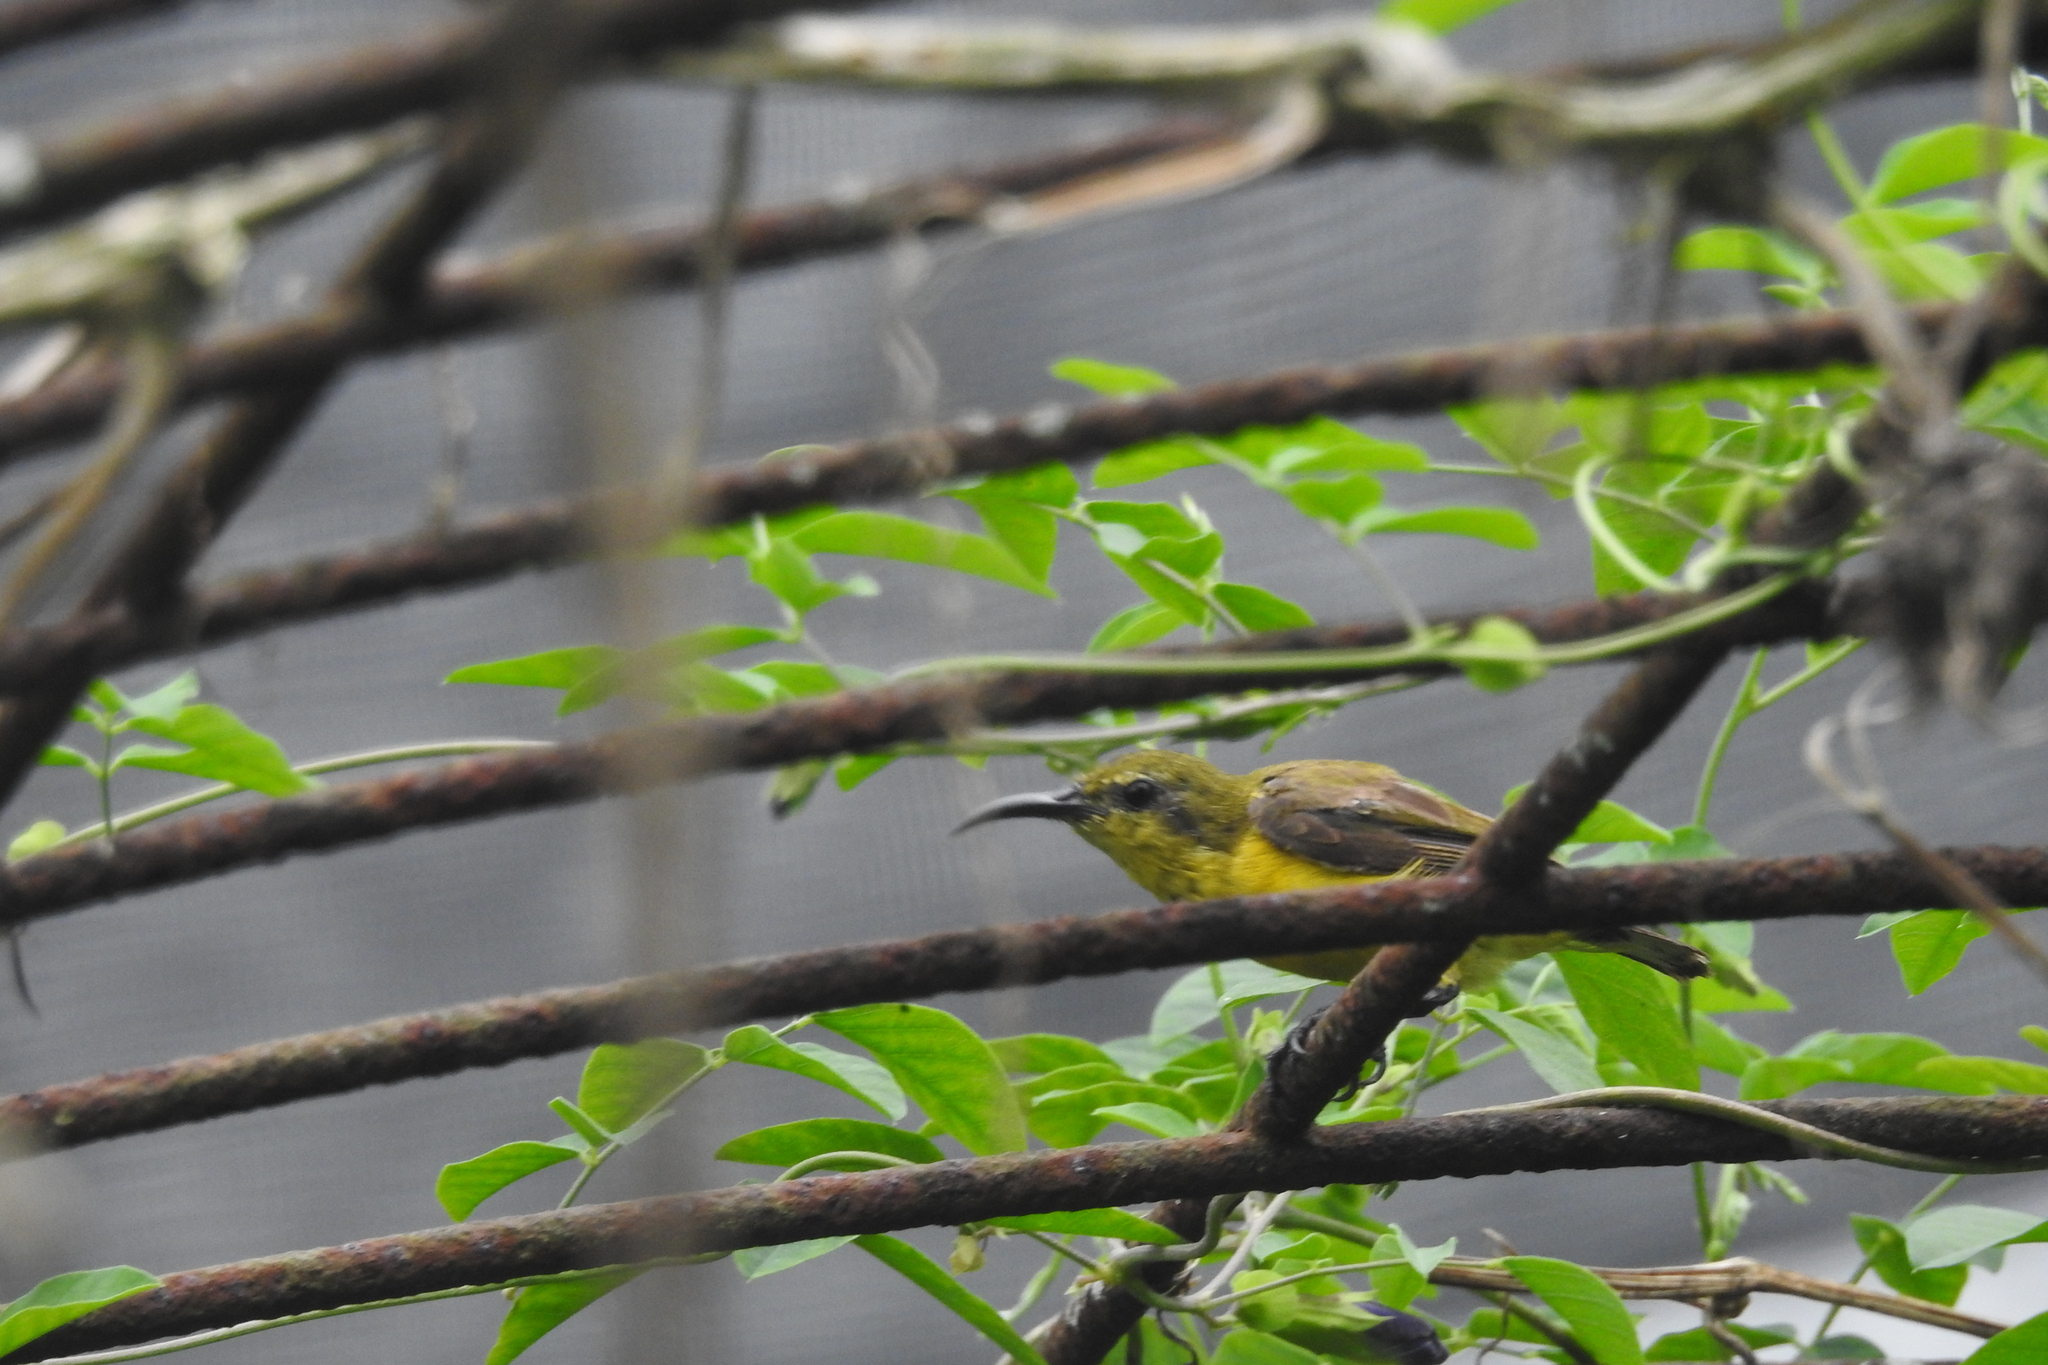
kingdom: Animalia
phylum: Chordata
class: Aves
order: Passeriformes
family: Nectariniidae
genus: Cinnyris
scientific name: Cinnyris
